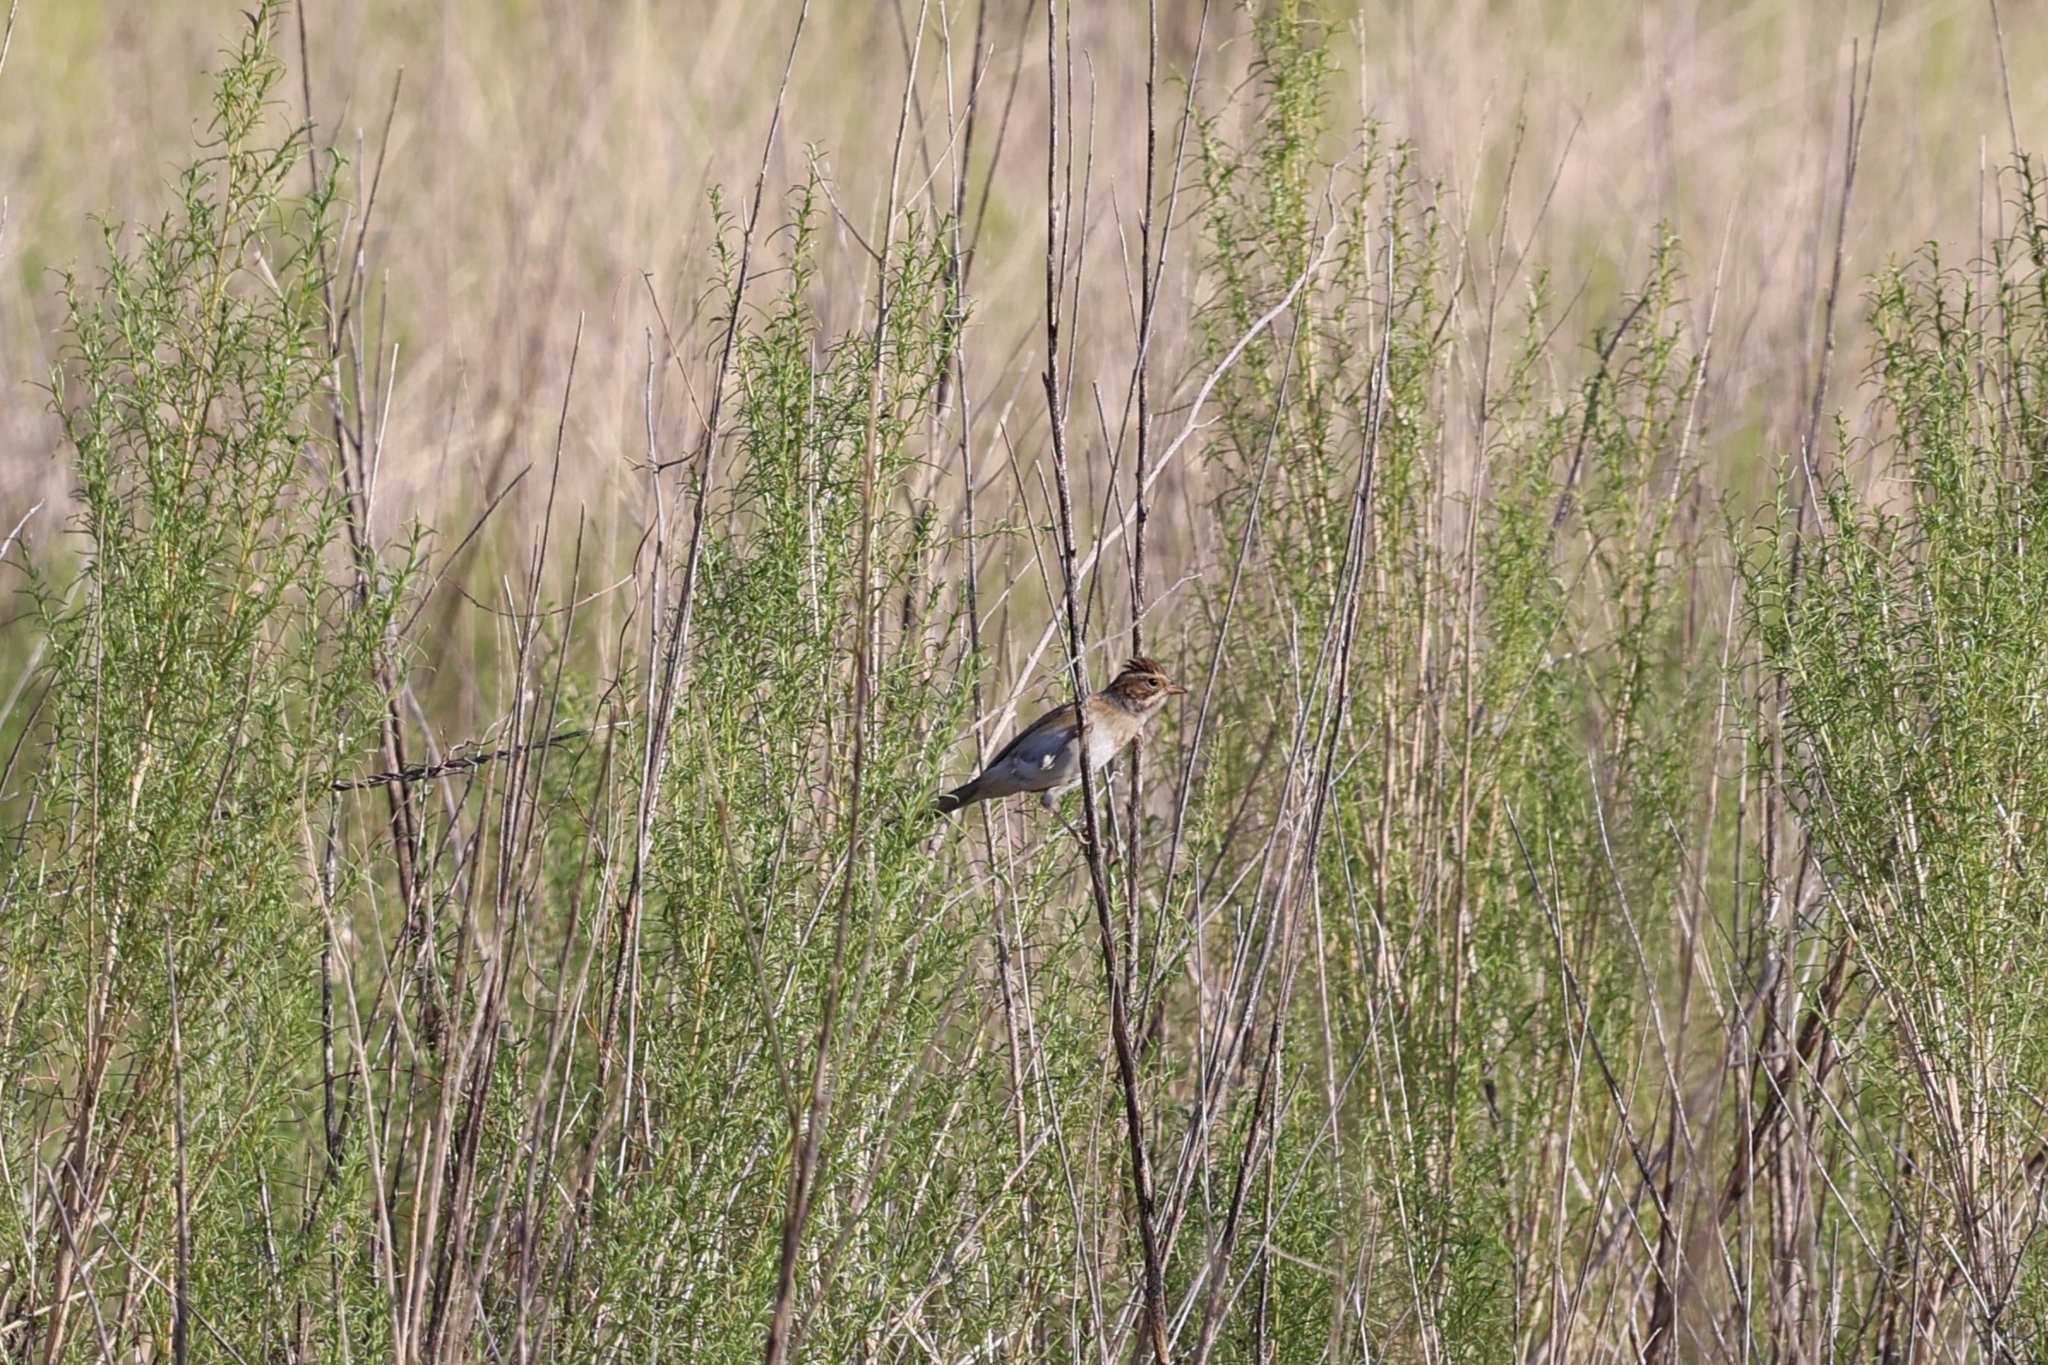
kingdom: Animalia
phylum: Chordata
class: Aves
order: Passeriformes
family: Passerellidae
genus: Spizella
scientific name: Spizella pallida
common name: Clay-colored sparrow
